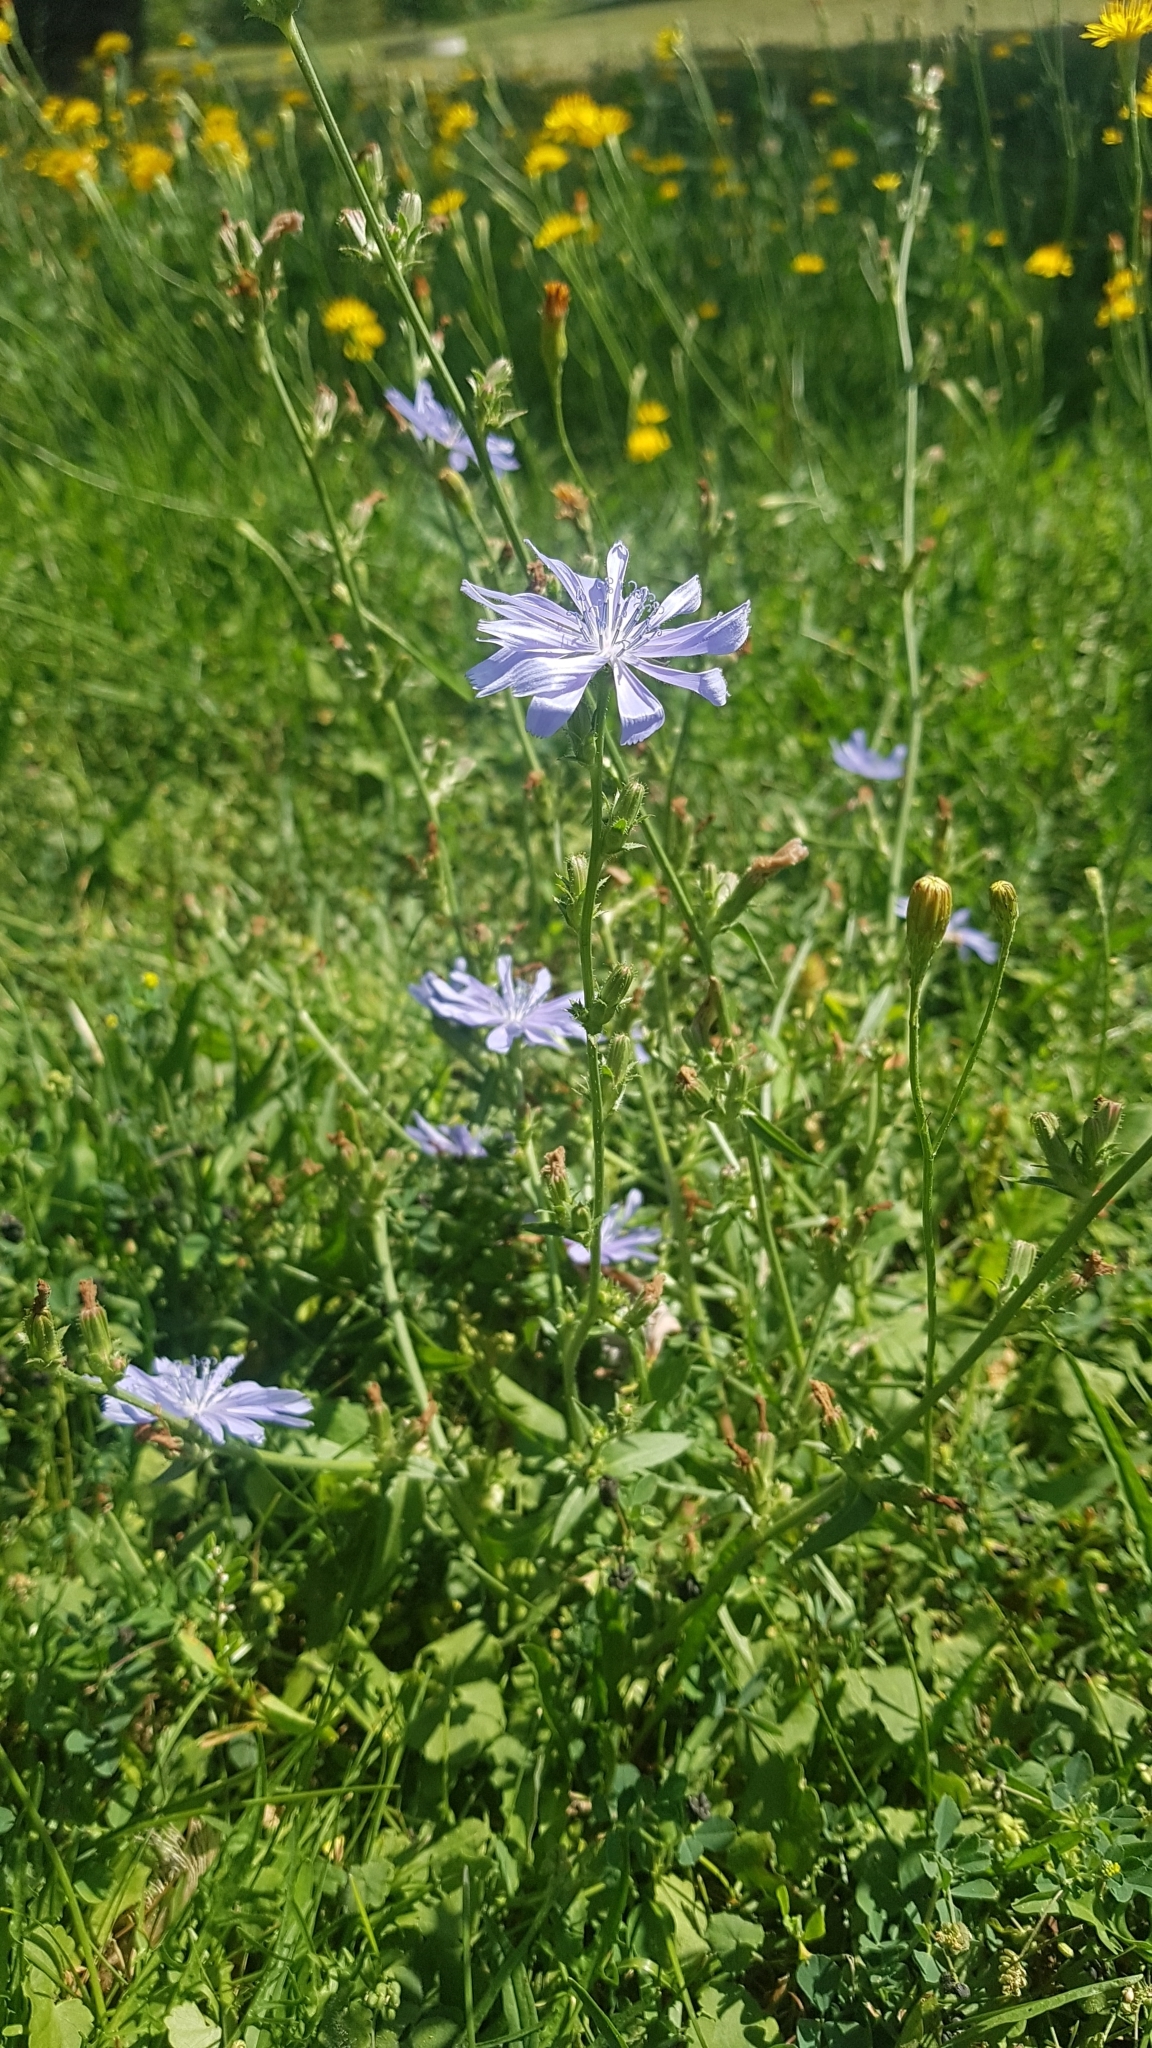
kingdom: Plantae
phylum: Tracheophyta
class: Magnoliopsida
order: Asterales
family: Asteraceae
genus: Cichorium
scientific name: Cichorium intybus
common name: Chicory
